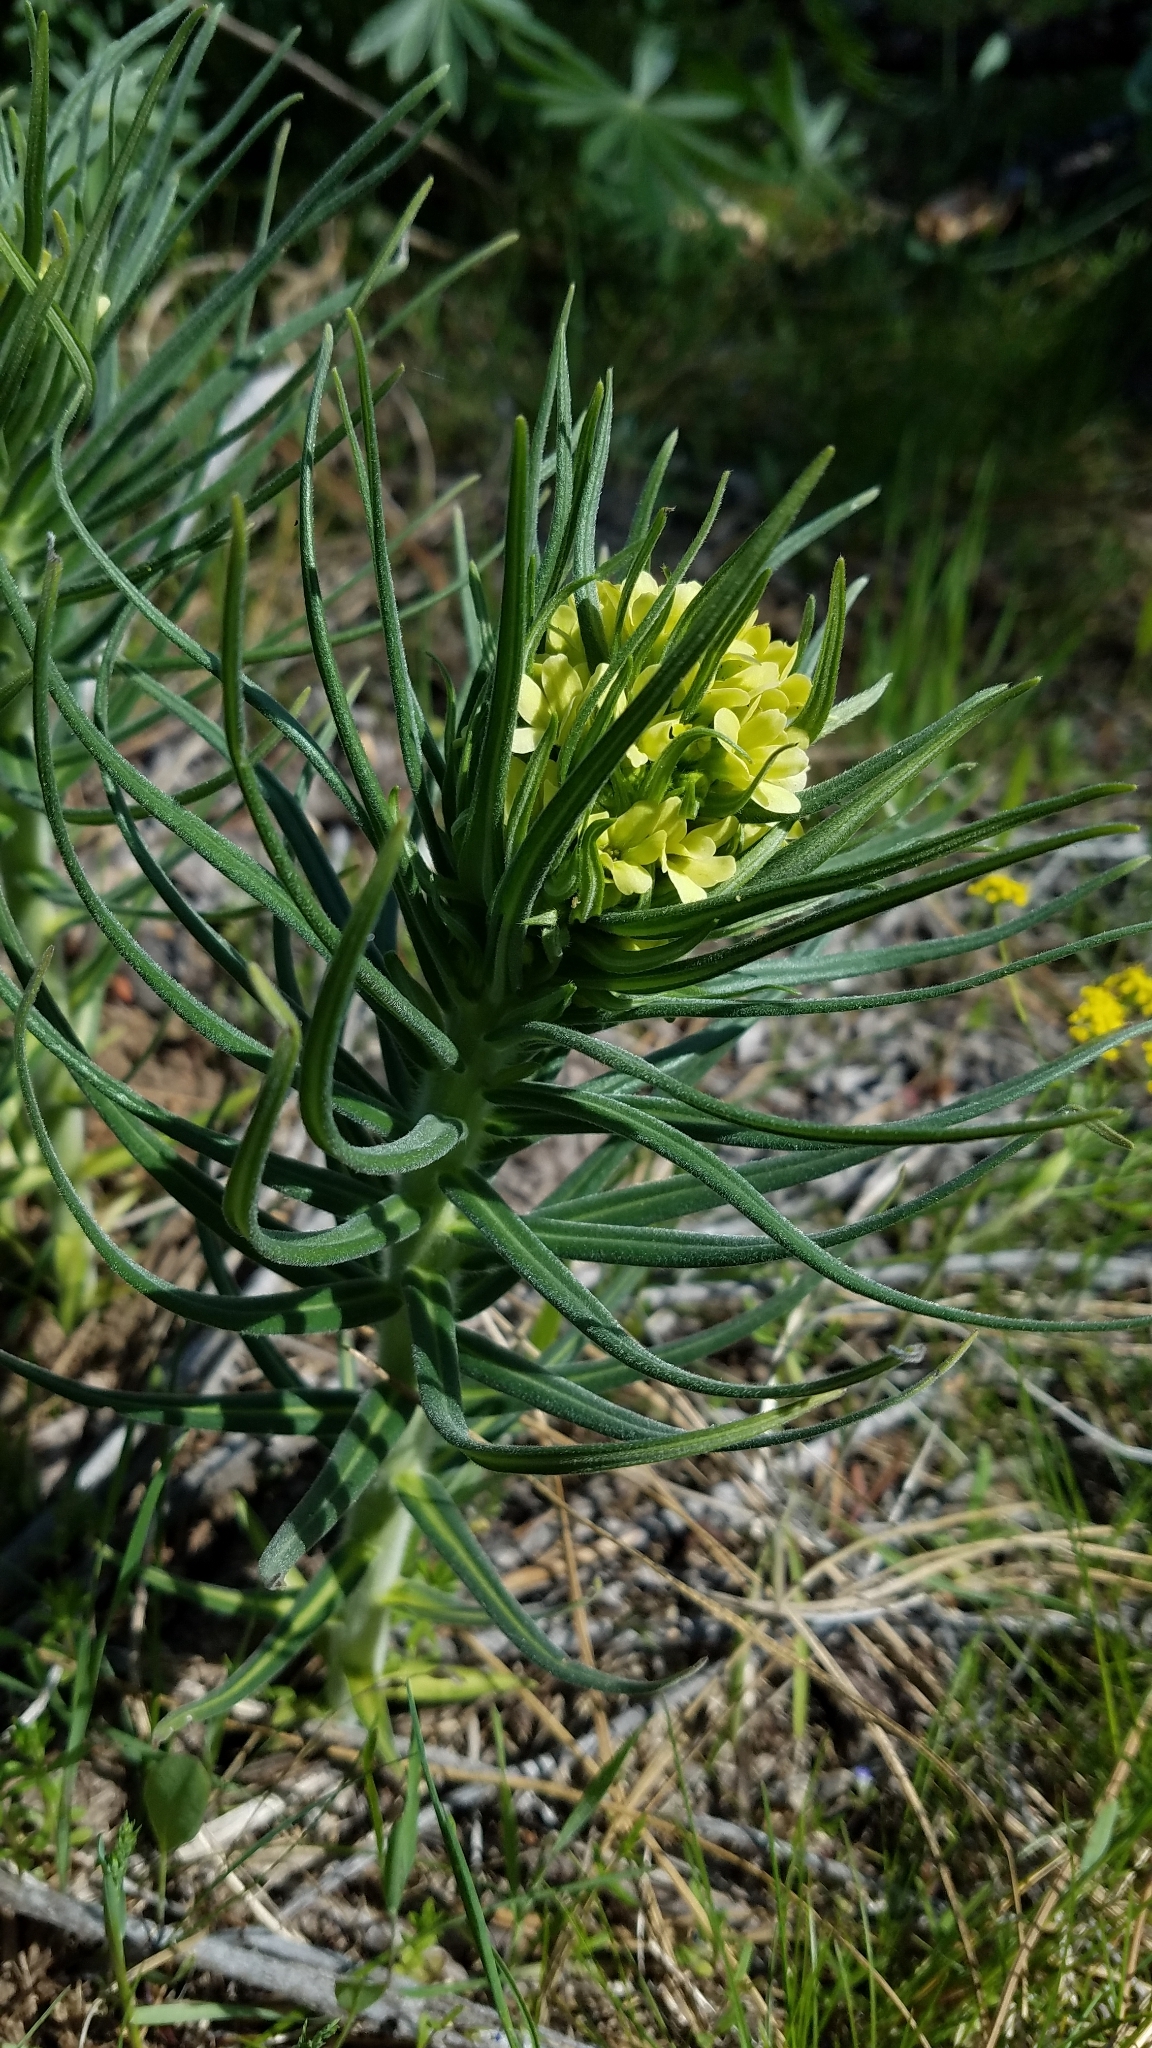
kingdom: Plantae
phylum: Tracheophyta
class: Magnoliopsida
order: Boraginales
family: Boraginaceae
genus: Lithospermum
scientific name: Lithospermum ruderale
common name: Western gromwell
